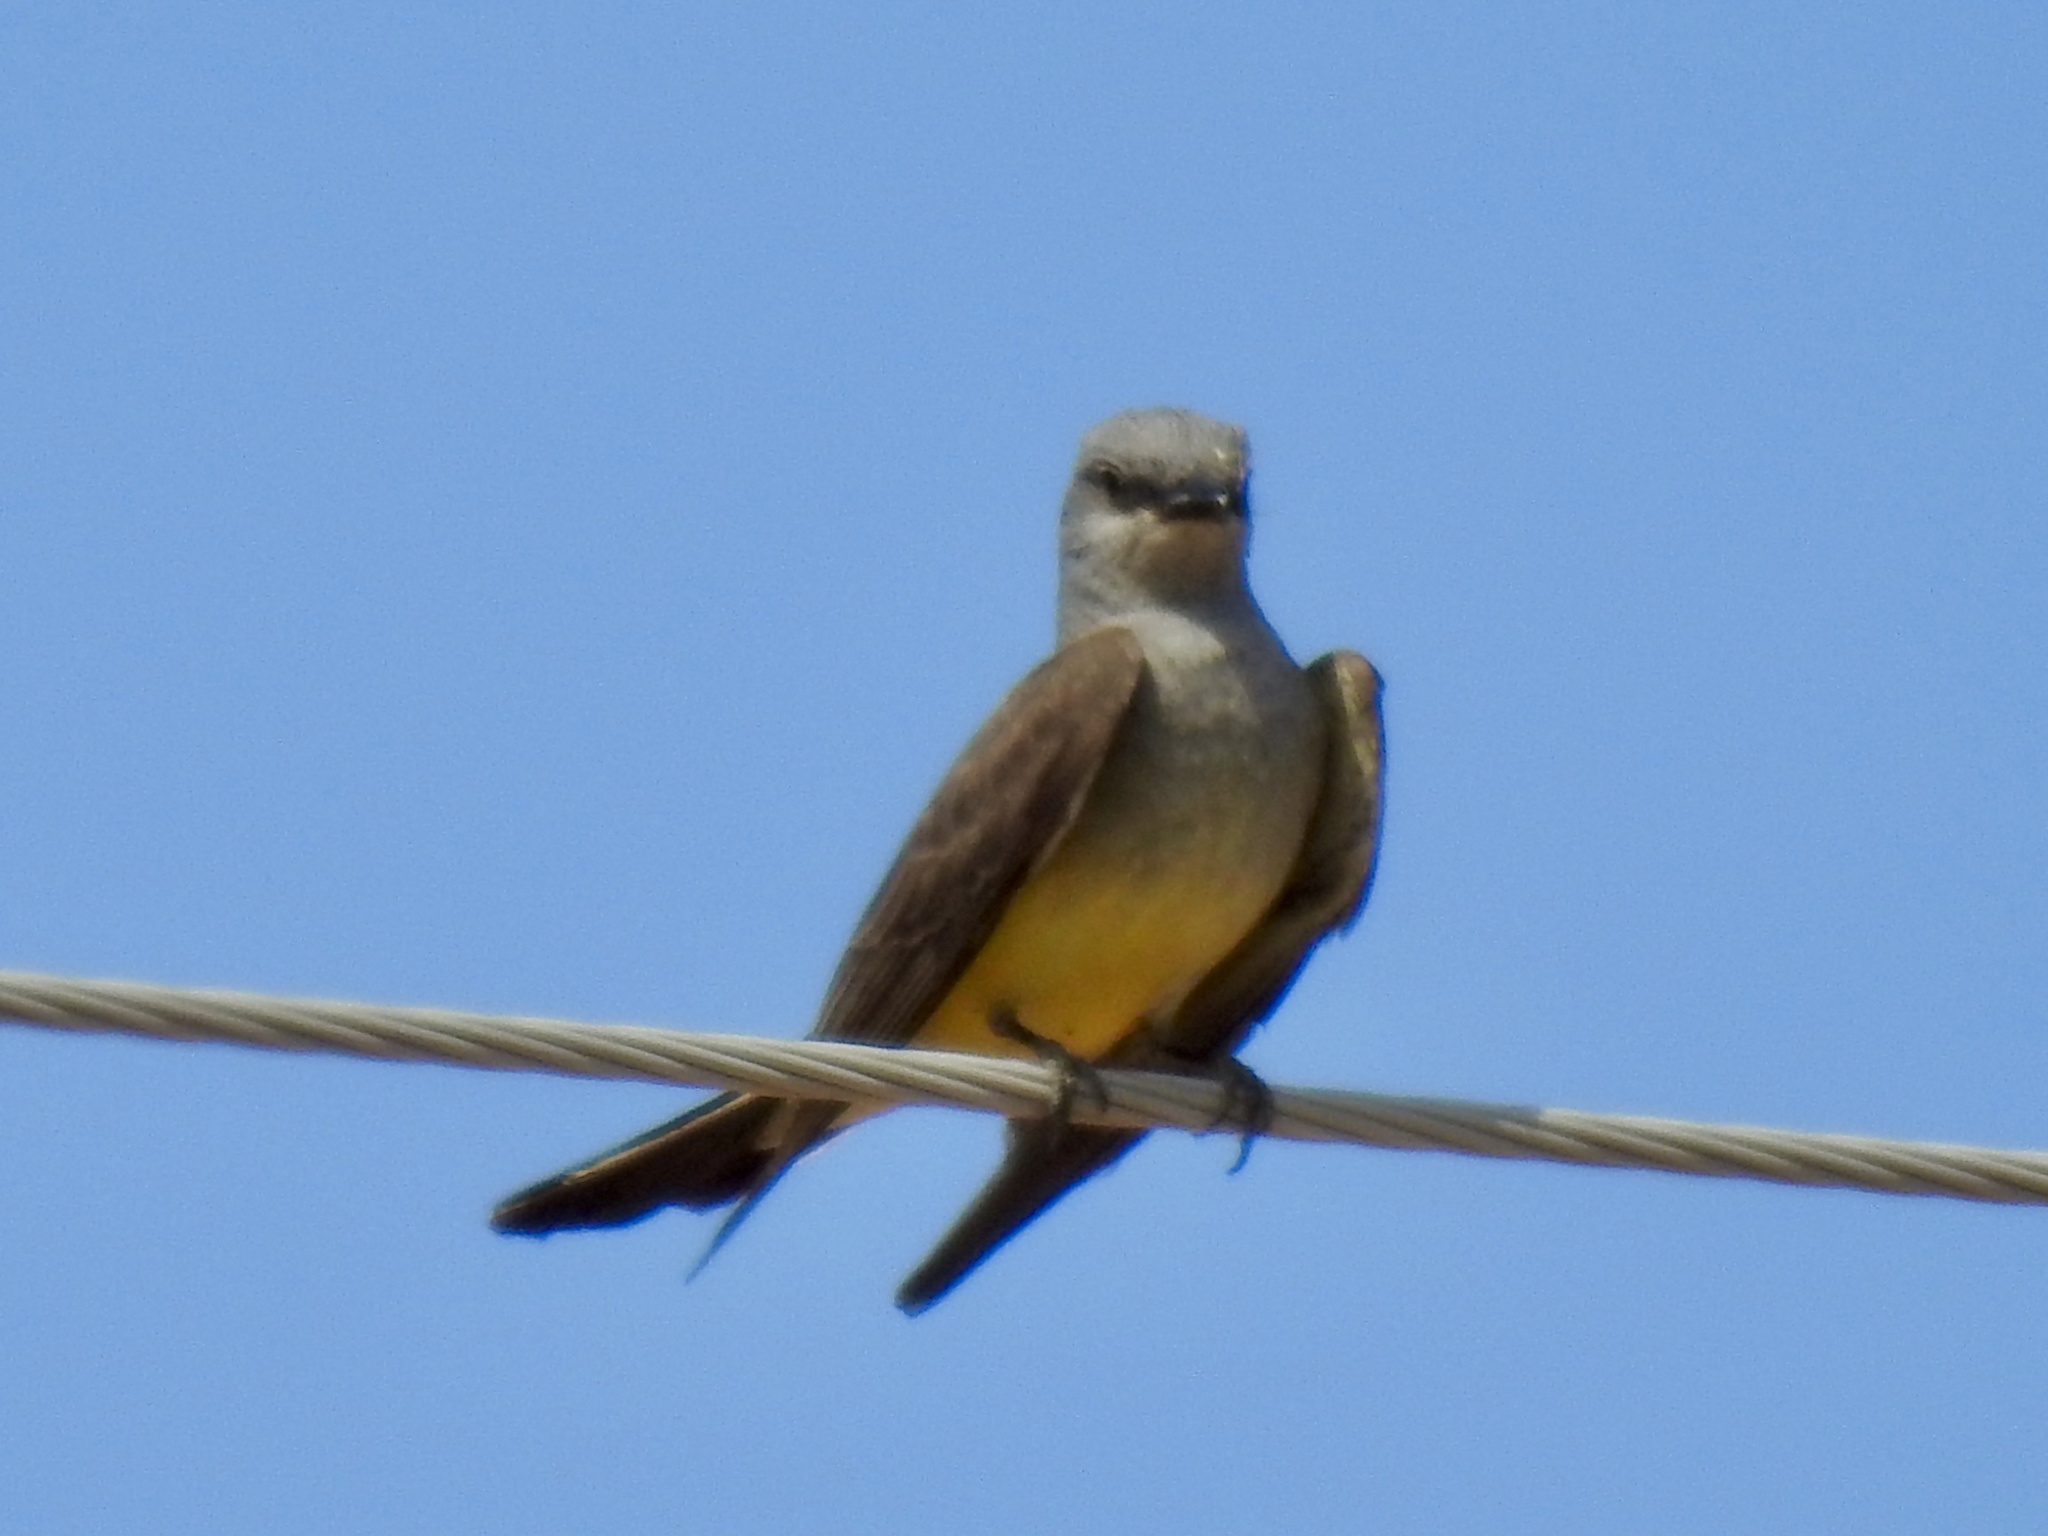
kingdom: Animalia
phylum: Chordata
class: Aves
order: Passeriformes
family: Tyrannidae
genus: Tyrannus
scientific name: Tyrannus verticalis
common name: Western kingbird
